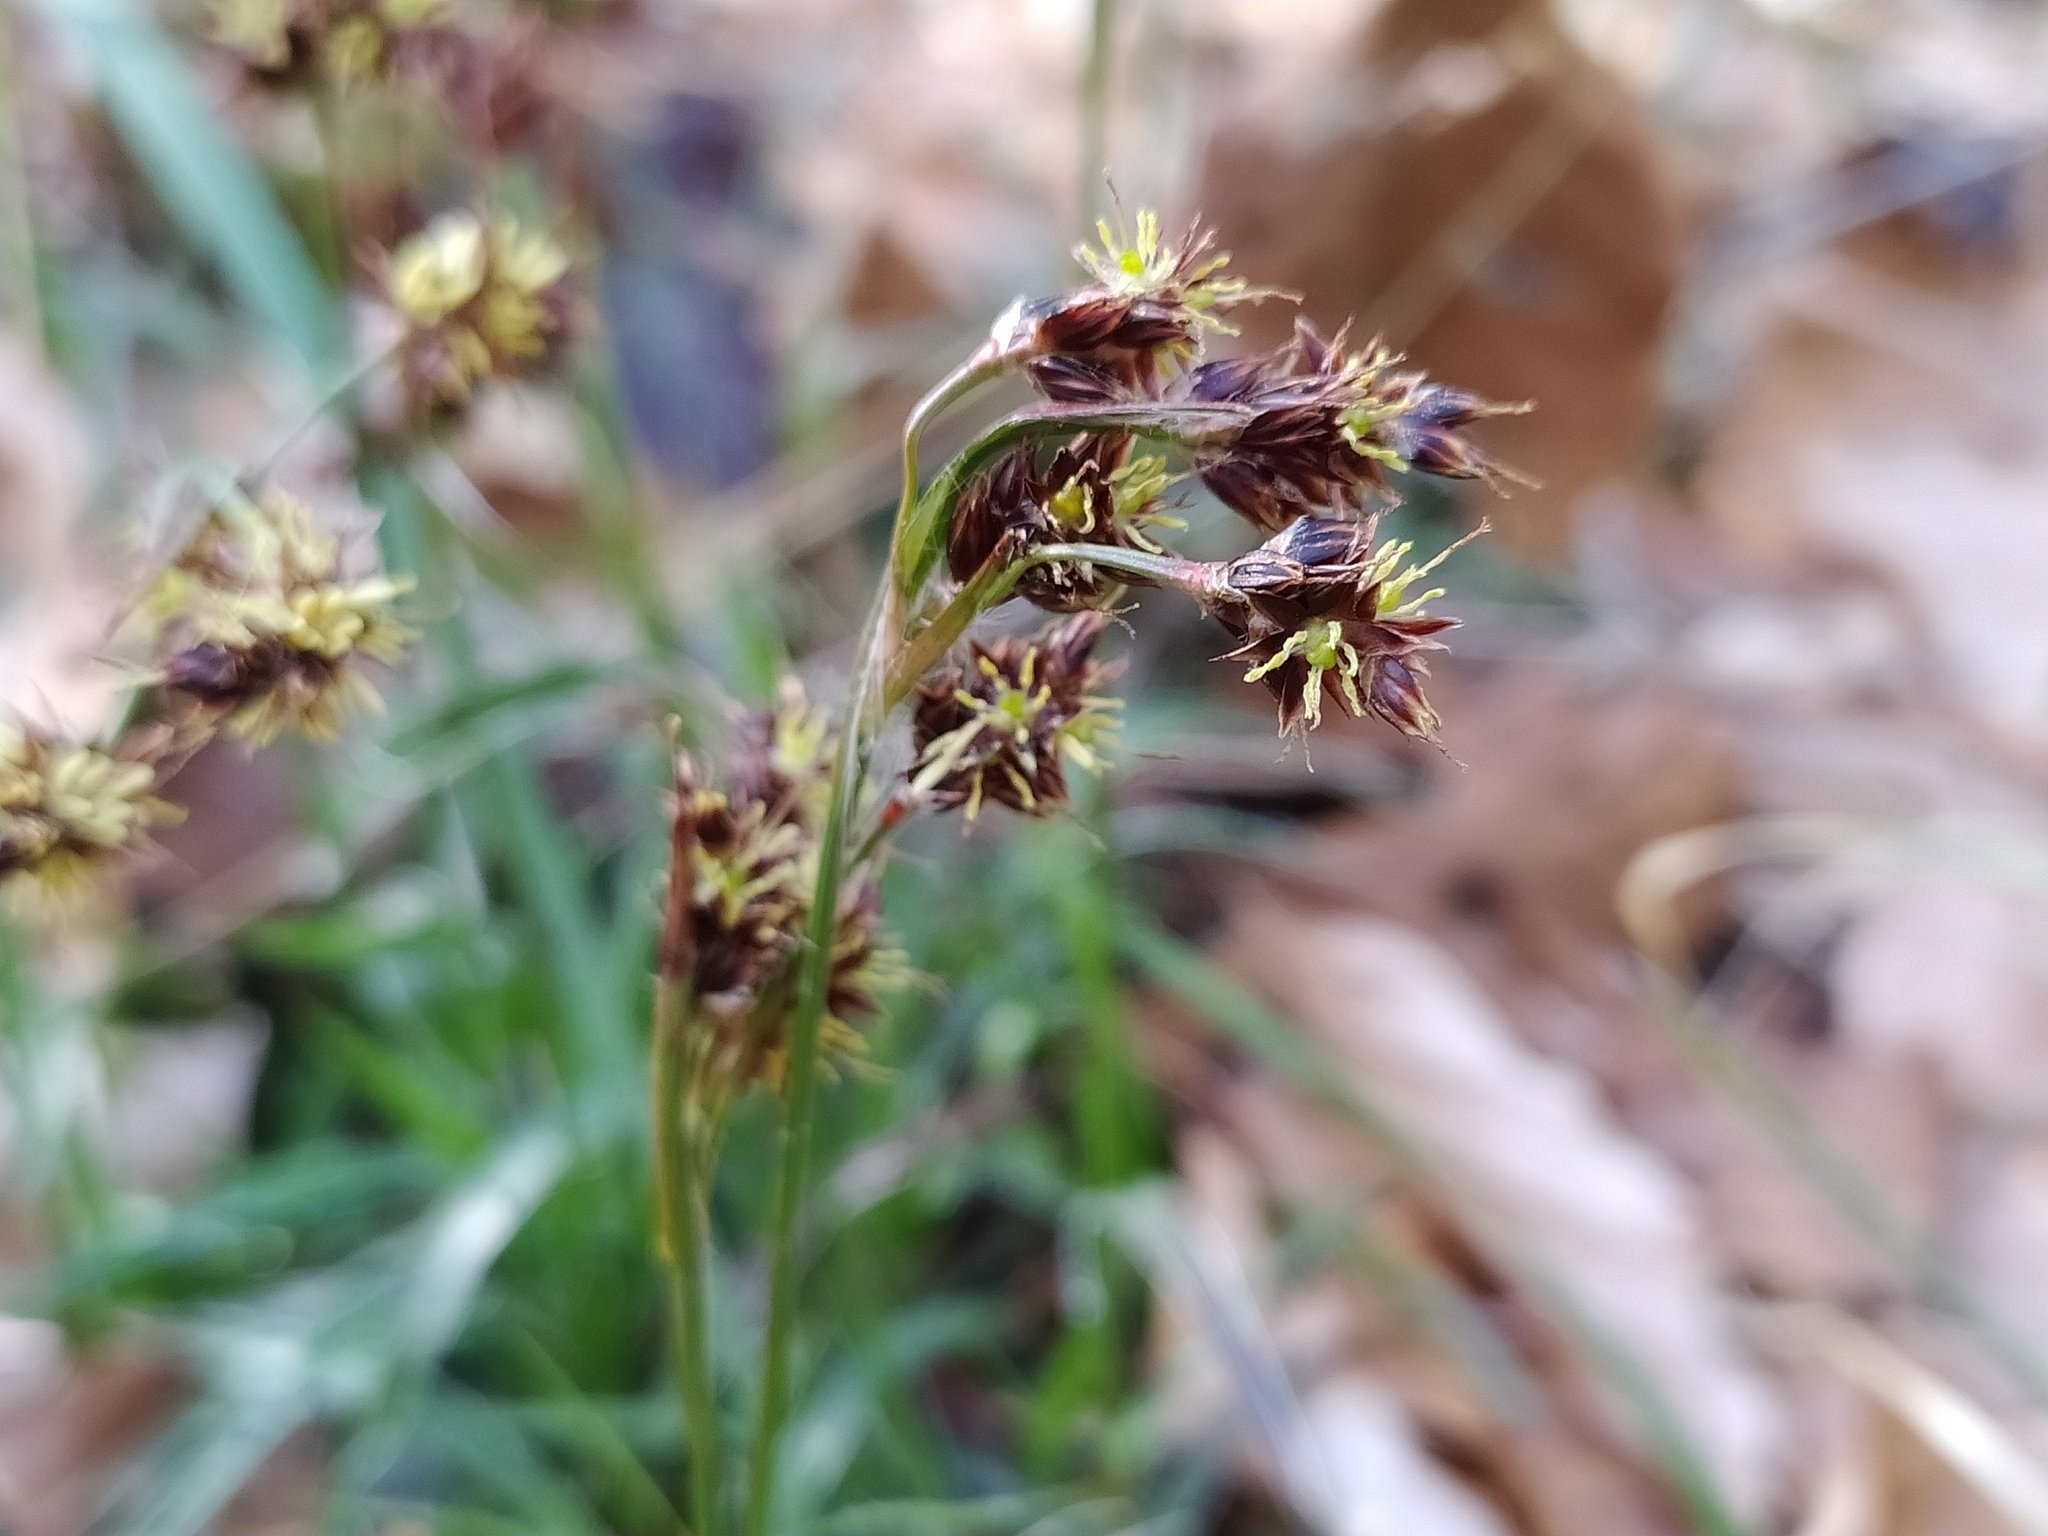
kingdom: Plantae
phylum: Tracheophyta
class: Liliopsida
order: Poales
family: Juncaceae
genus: Luzula
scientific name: Luzula multiflora
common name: Heath wood-rush
